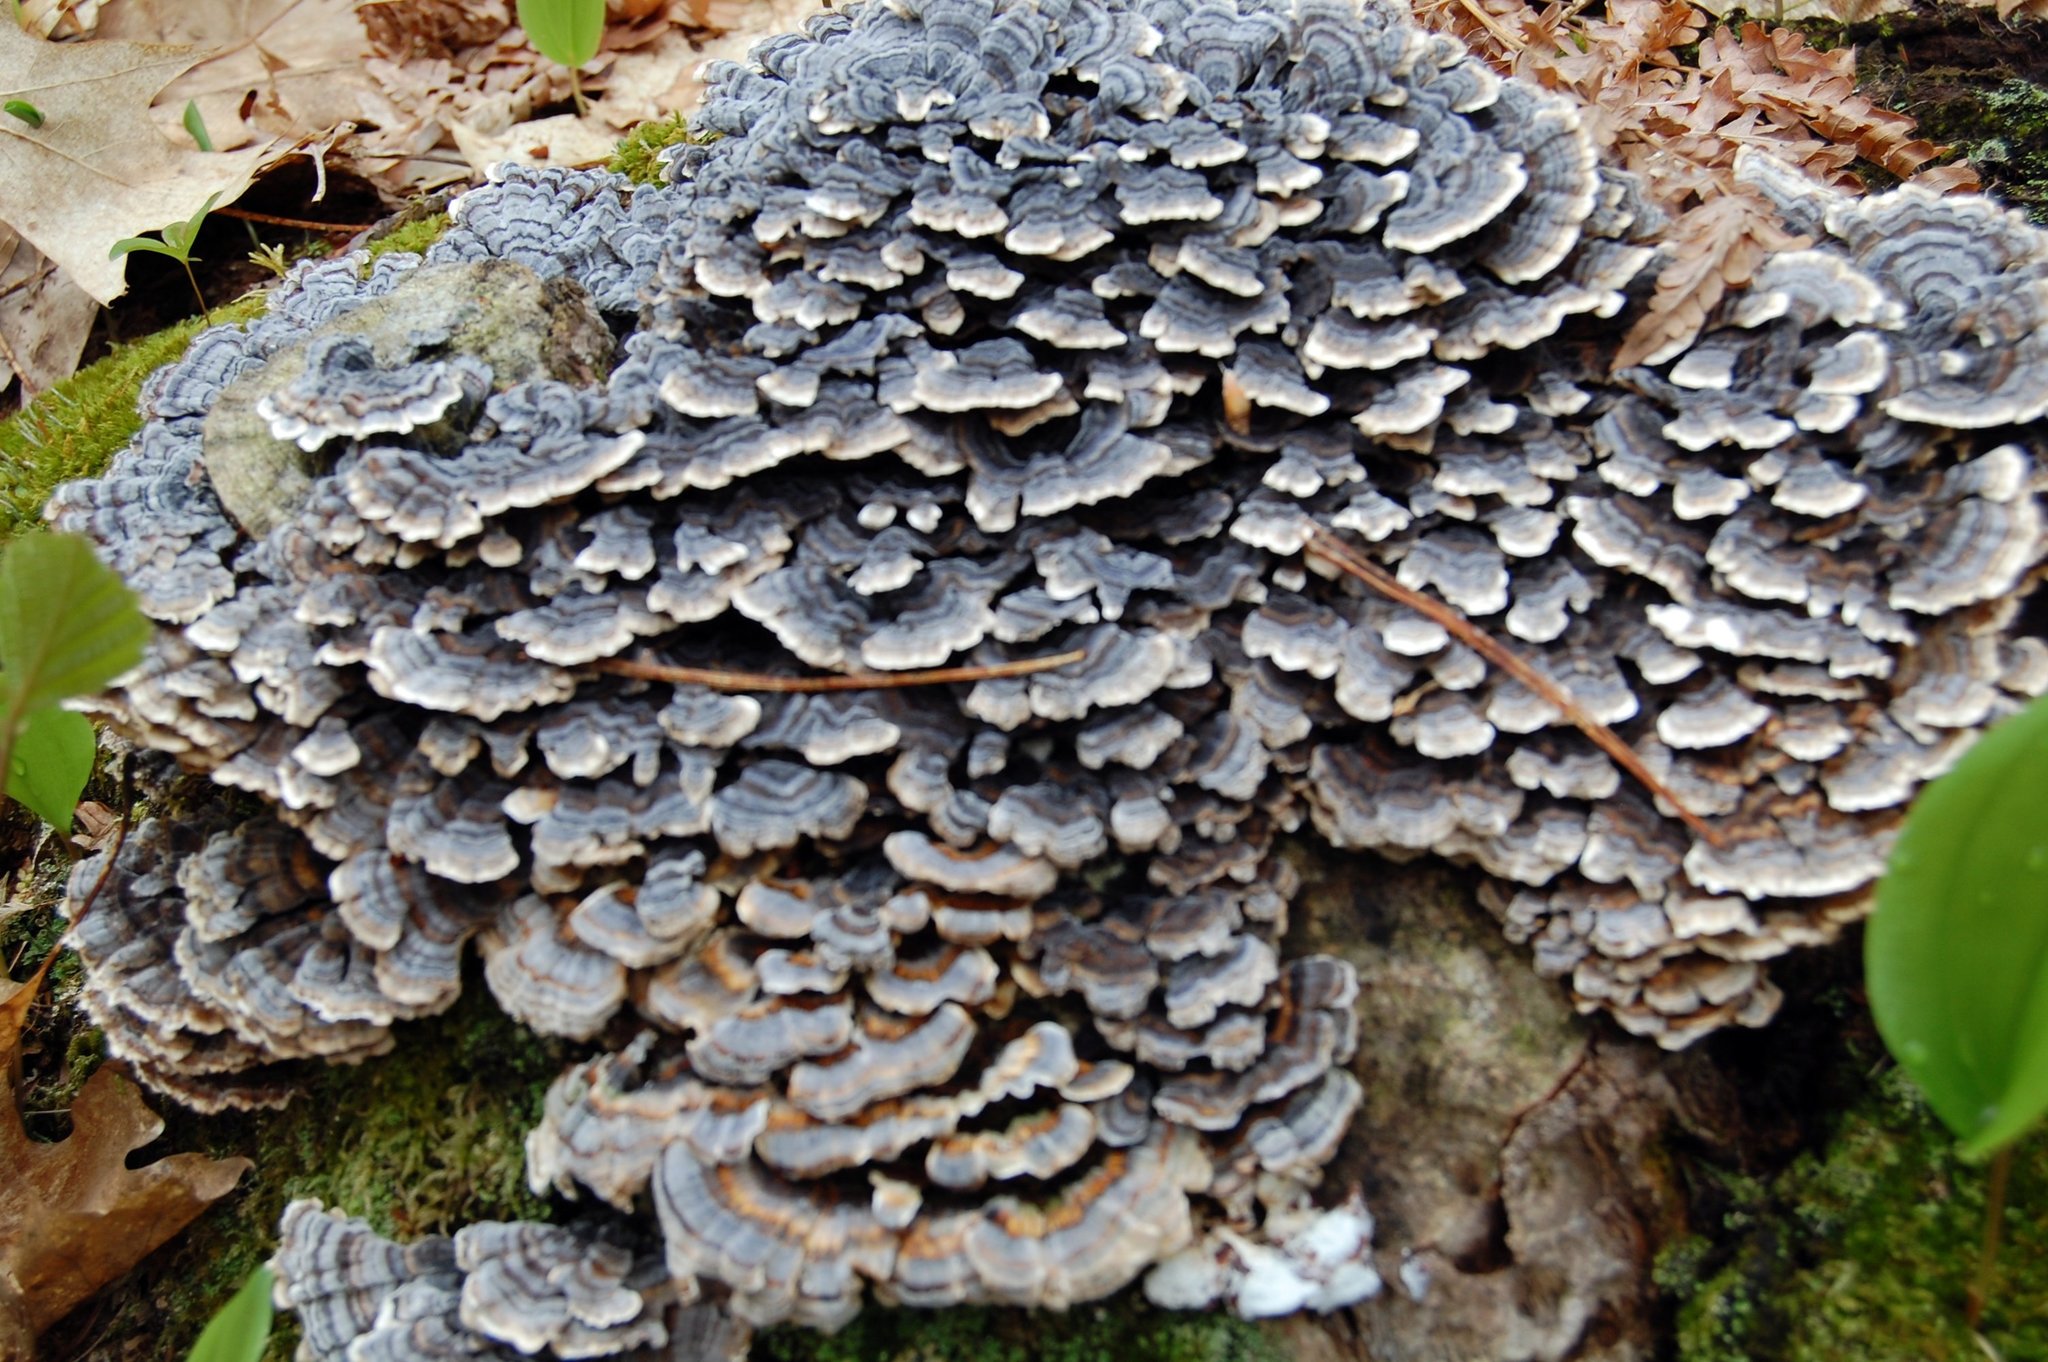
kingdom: Fungi
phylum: Basidiomycota
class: Agaricomycetes
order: Polyporales
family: Polyporaceae
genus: Trametes
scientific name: Trametes versicolor
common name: Turkeytail
